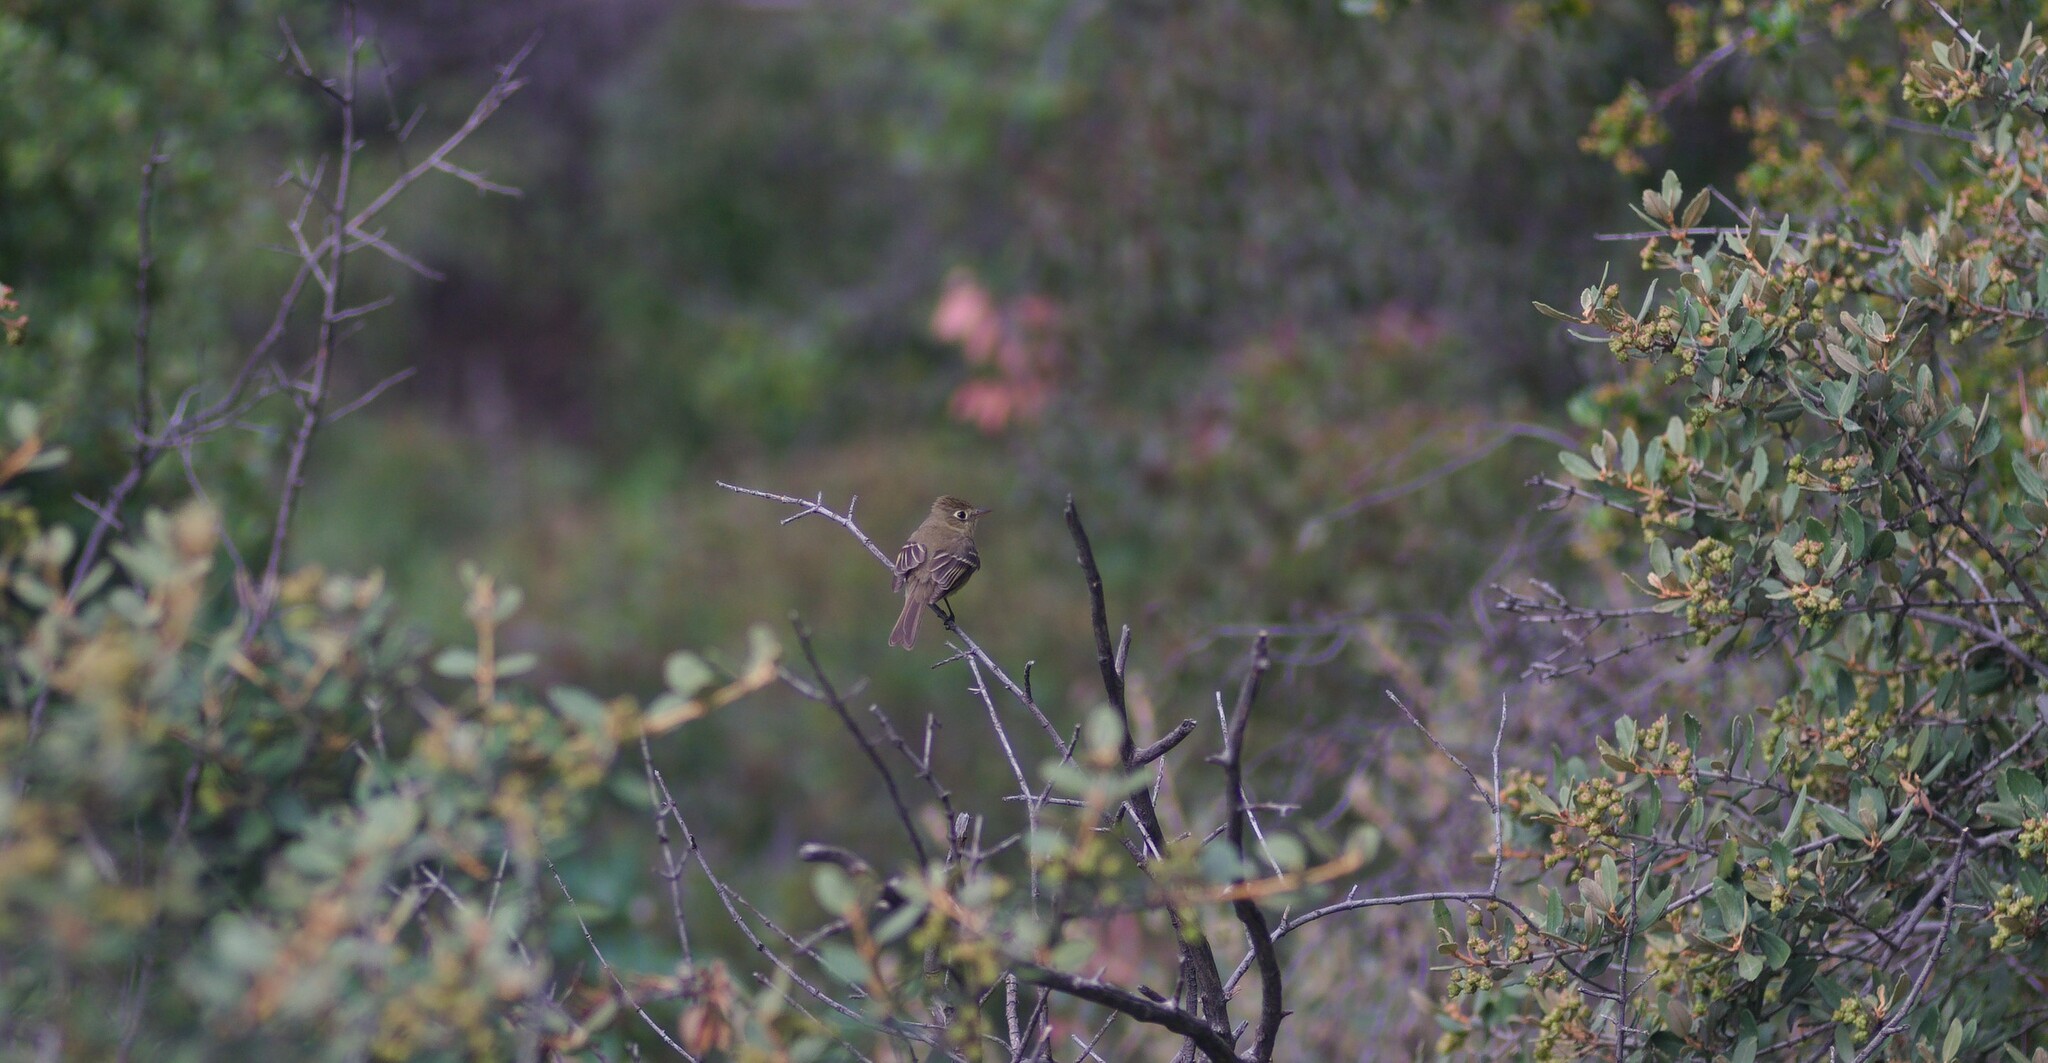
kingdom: Animalia
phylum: Chordata
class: Aves
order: Passeriformes
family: Tyrannidae
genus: Empidonax
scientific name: Empidonax difficilis
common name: Pacific-slope flycatcher
